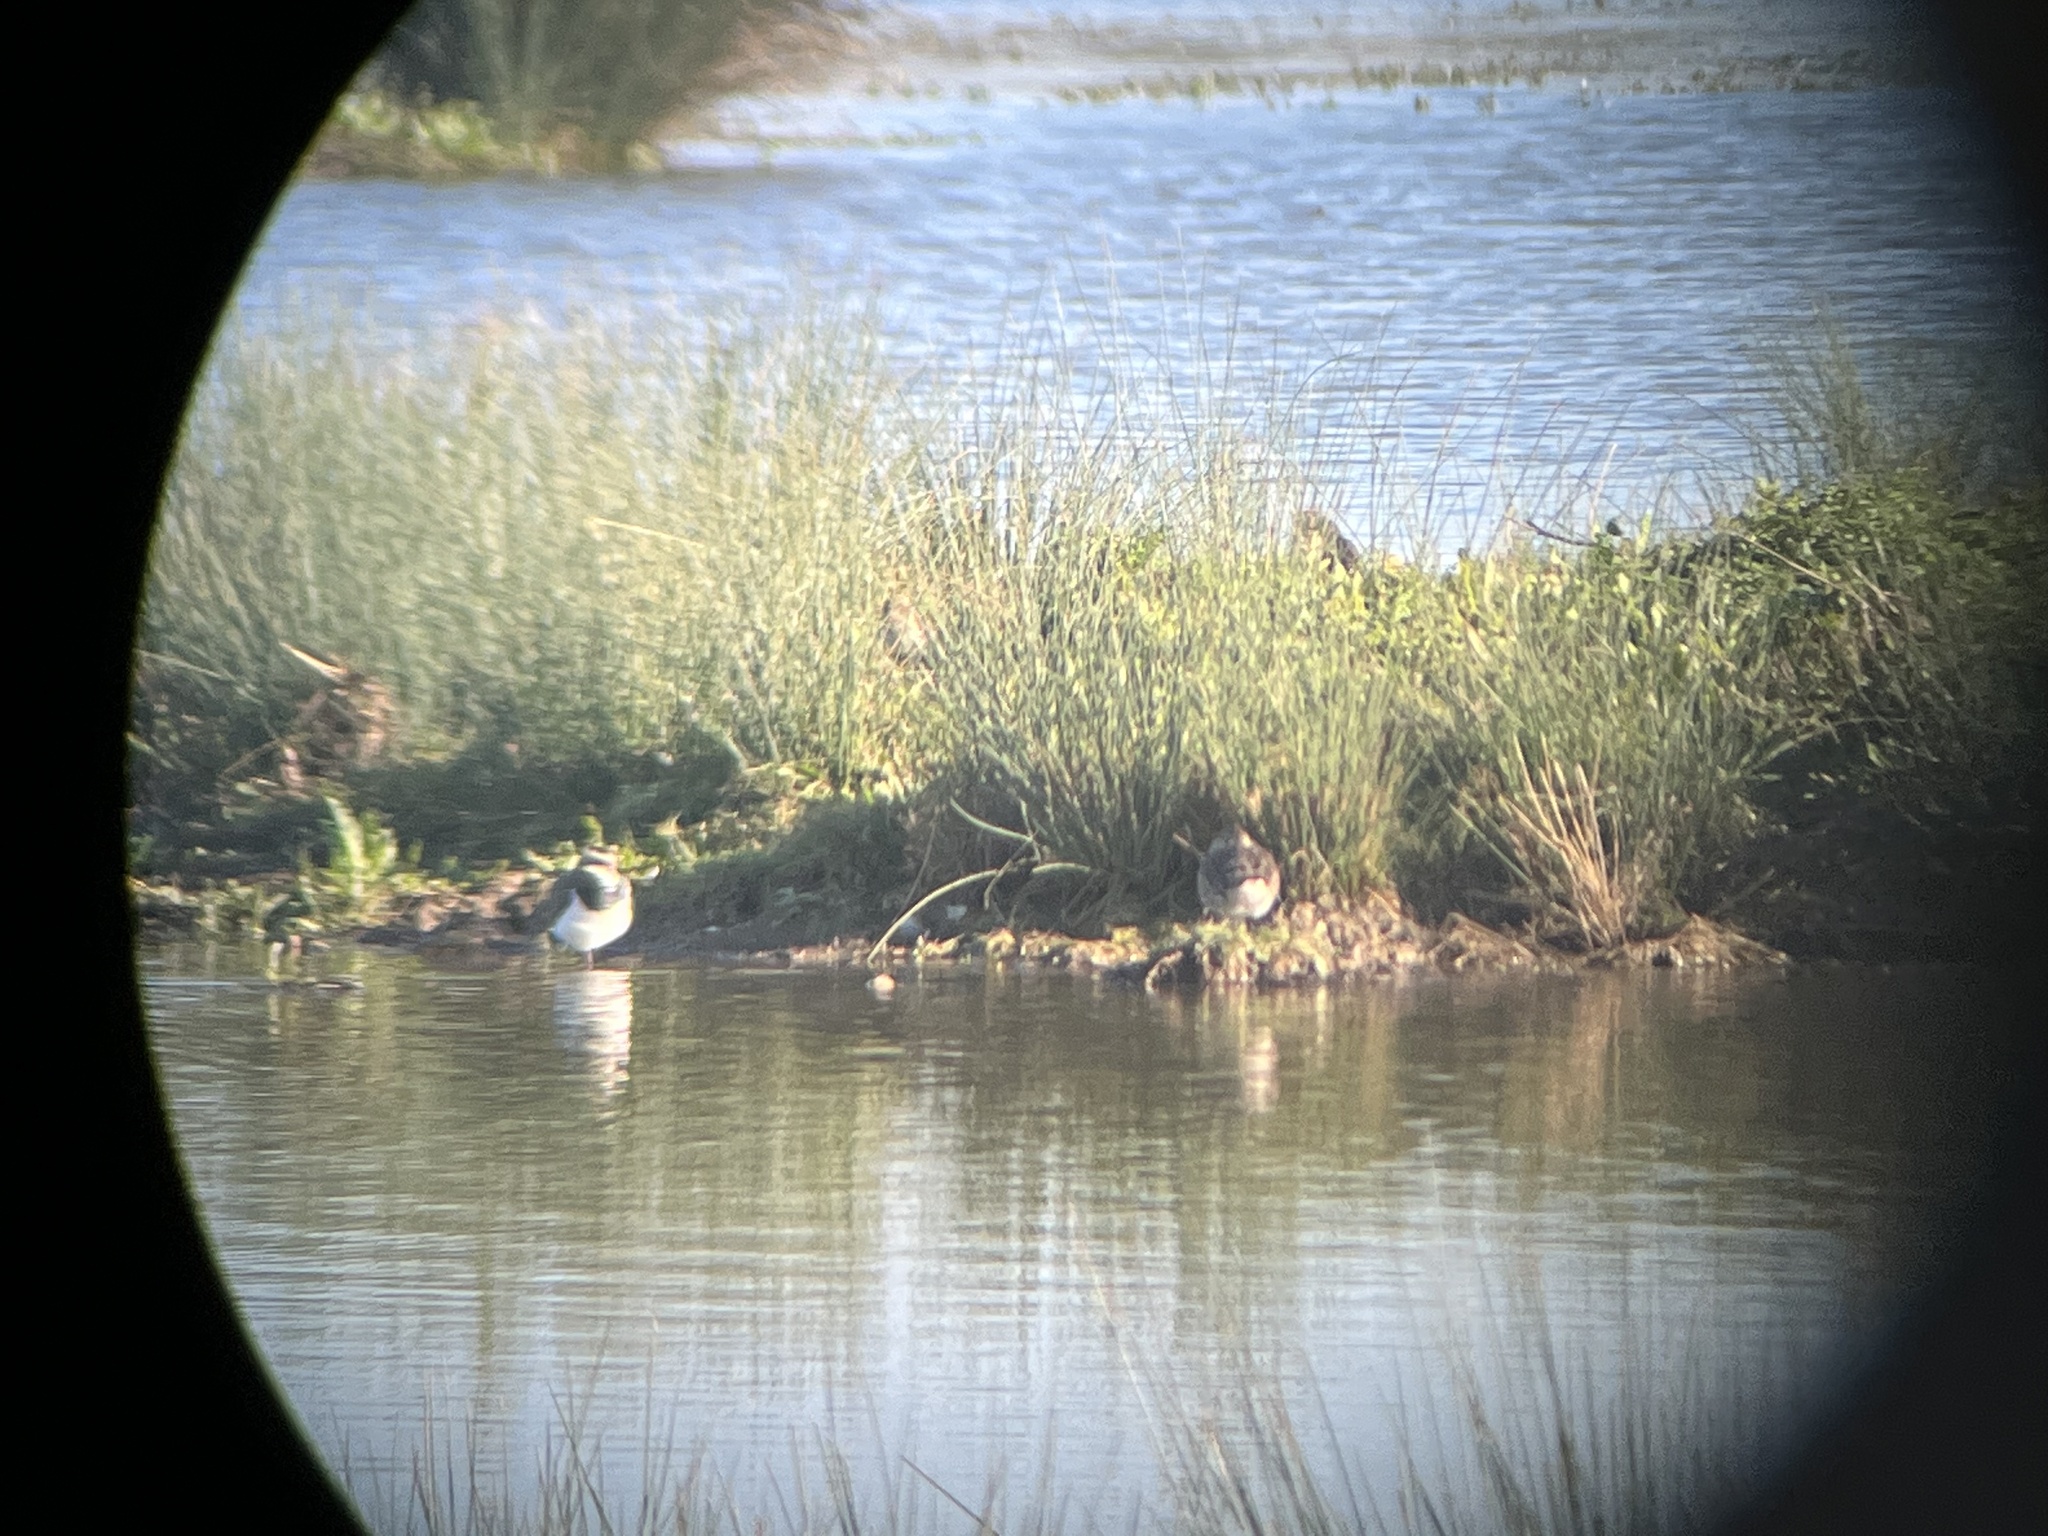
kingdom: Animalia
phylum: Chordata
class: Aves
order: Charadriiformes
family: Charadriidae
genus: Vanellus
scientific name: Vanellus vanellus
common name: Northern lapwing
